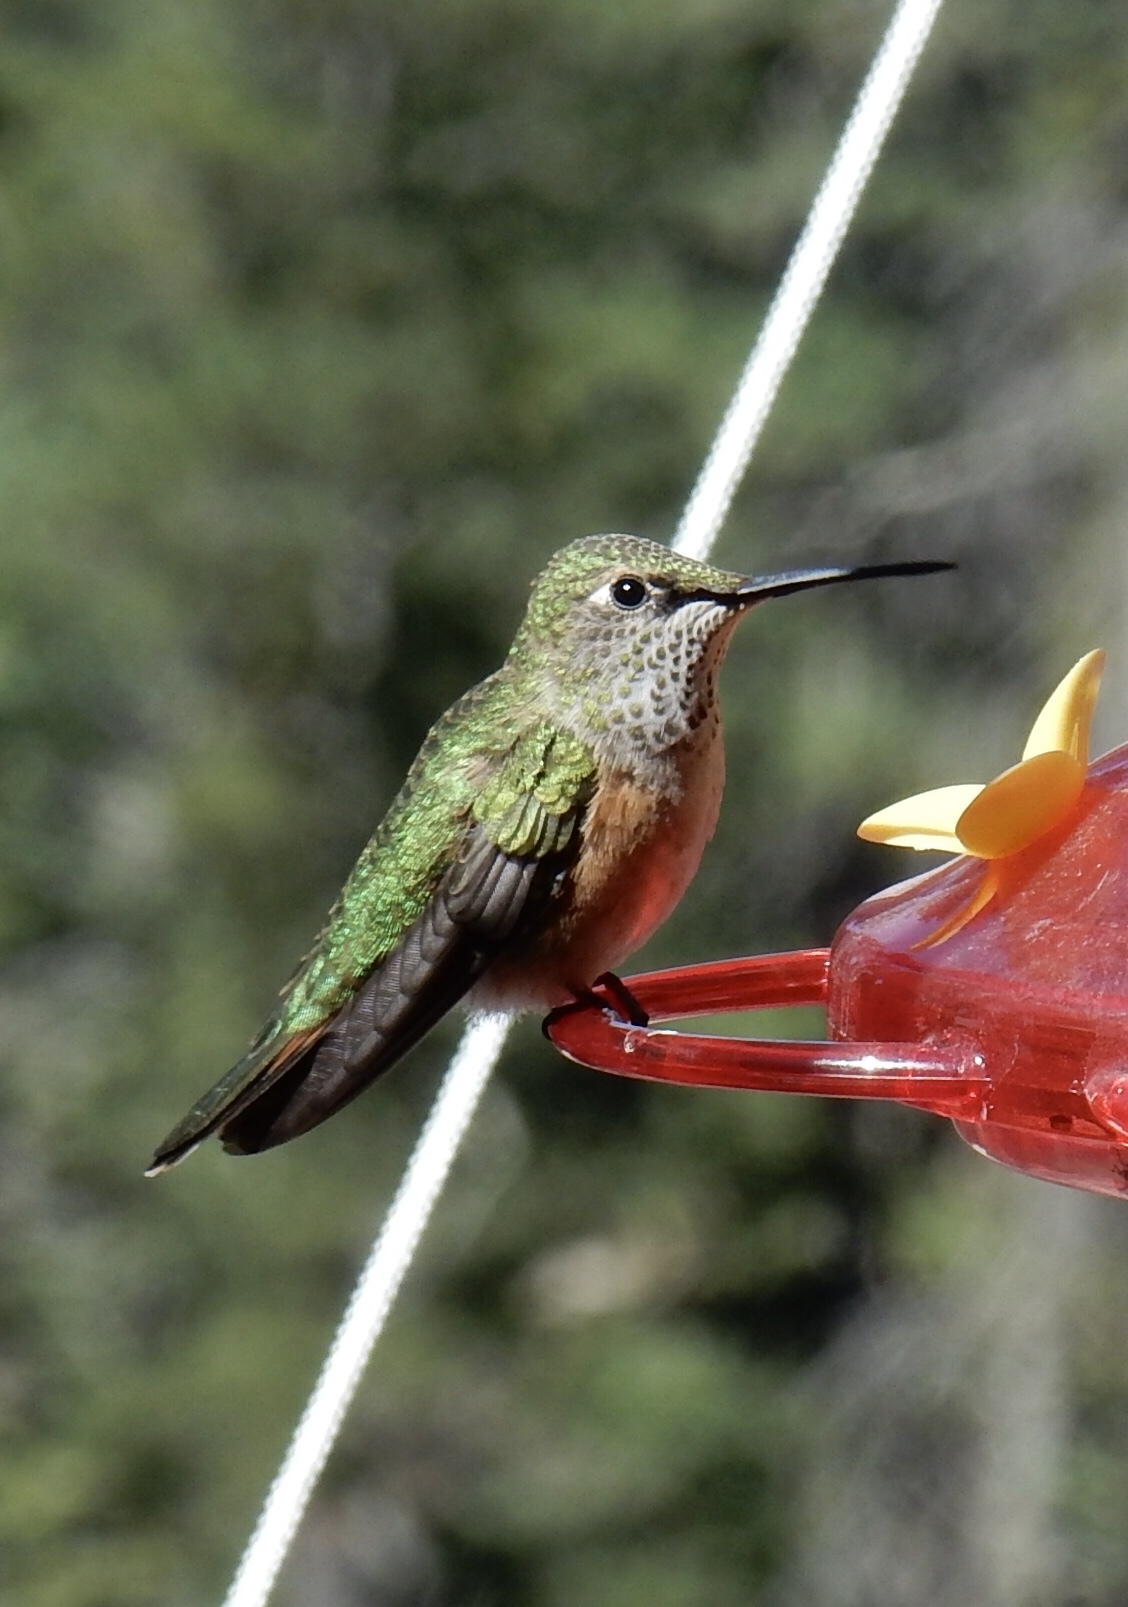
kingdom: Animalia
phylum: Chordata
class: Aves
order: Apodiformes
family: Trochilidae
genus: Selasphorus
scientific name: Selasphorus platycercus
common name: Broad-tailed hummingbird
